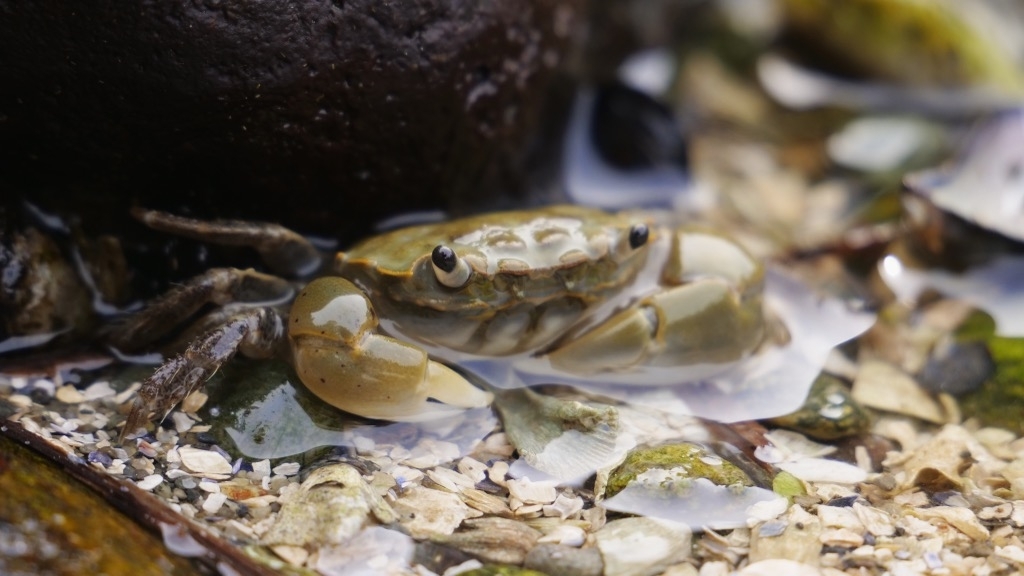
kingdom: Animalia
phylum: Arthropoda
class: Malacostraca
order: Decapoda
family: Varunidae
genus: Hemigrapsus
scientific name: Hemigrapsus oregonensis
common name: Yellow shore crab
